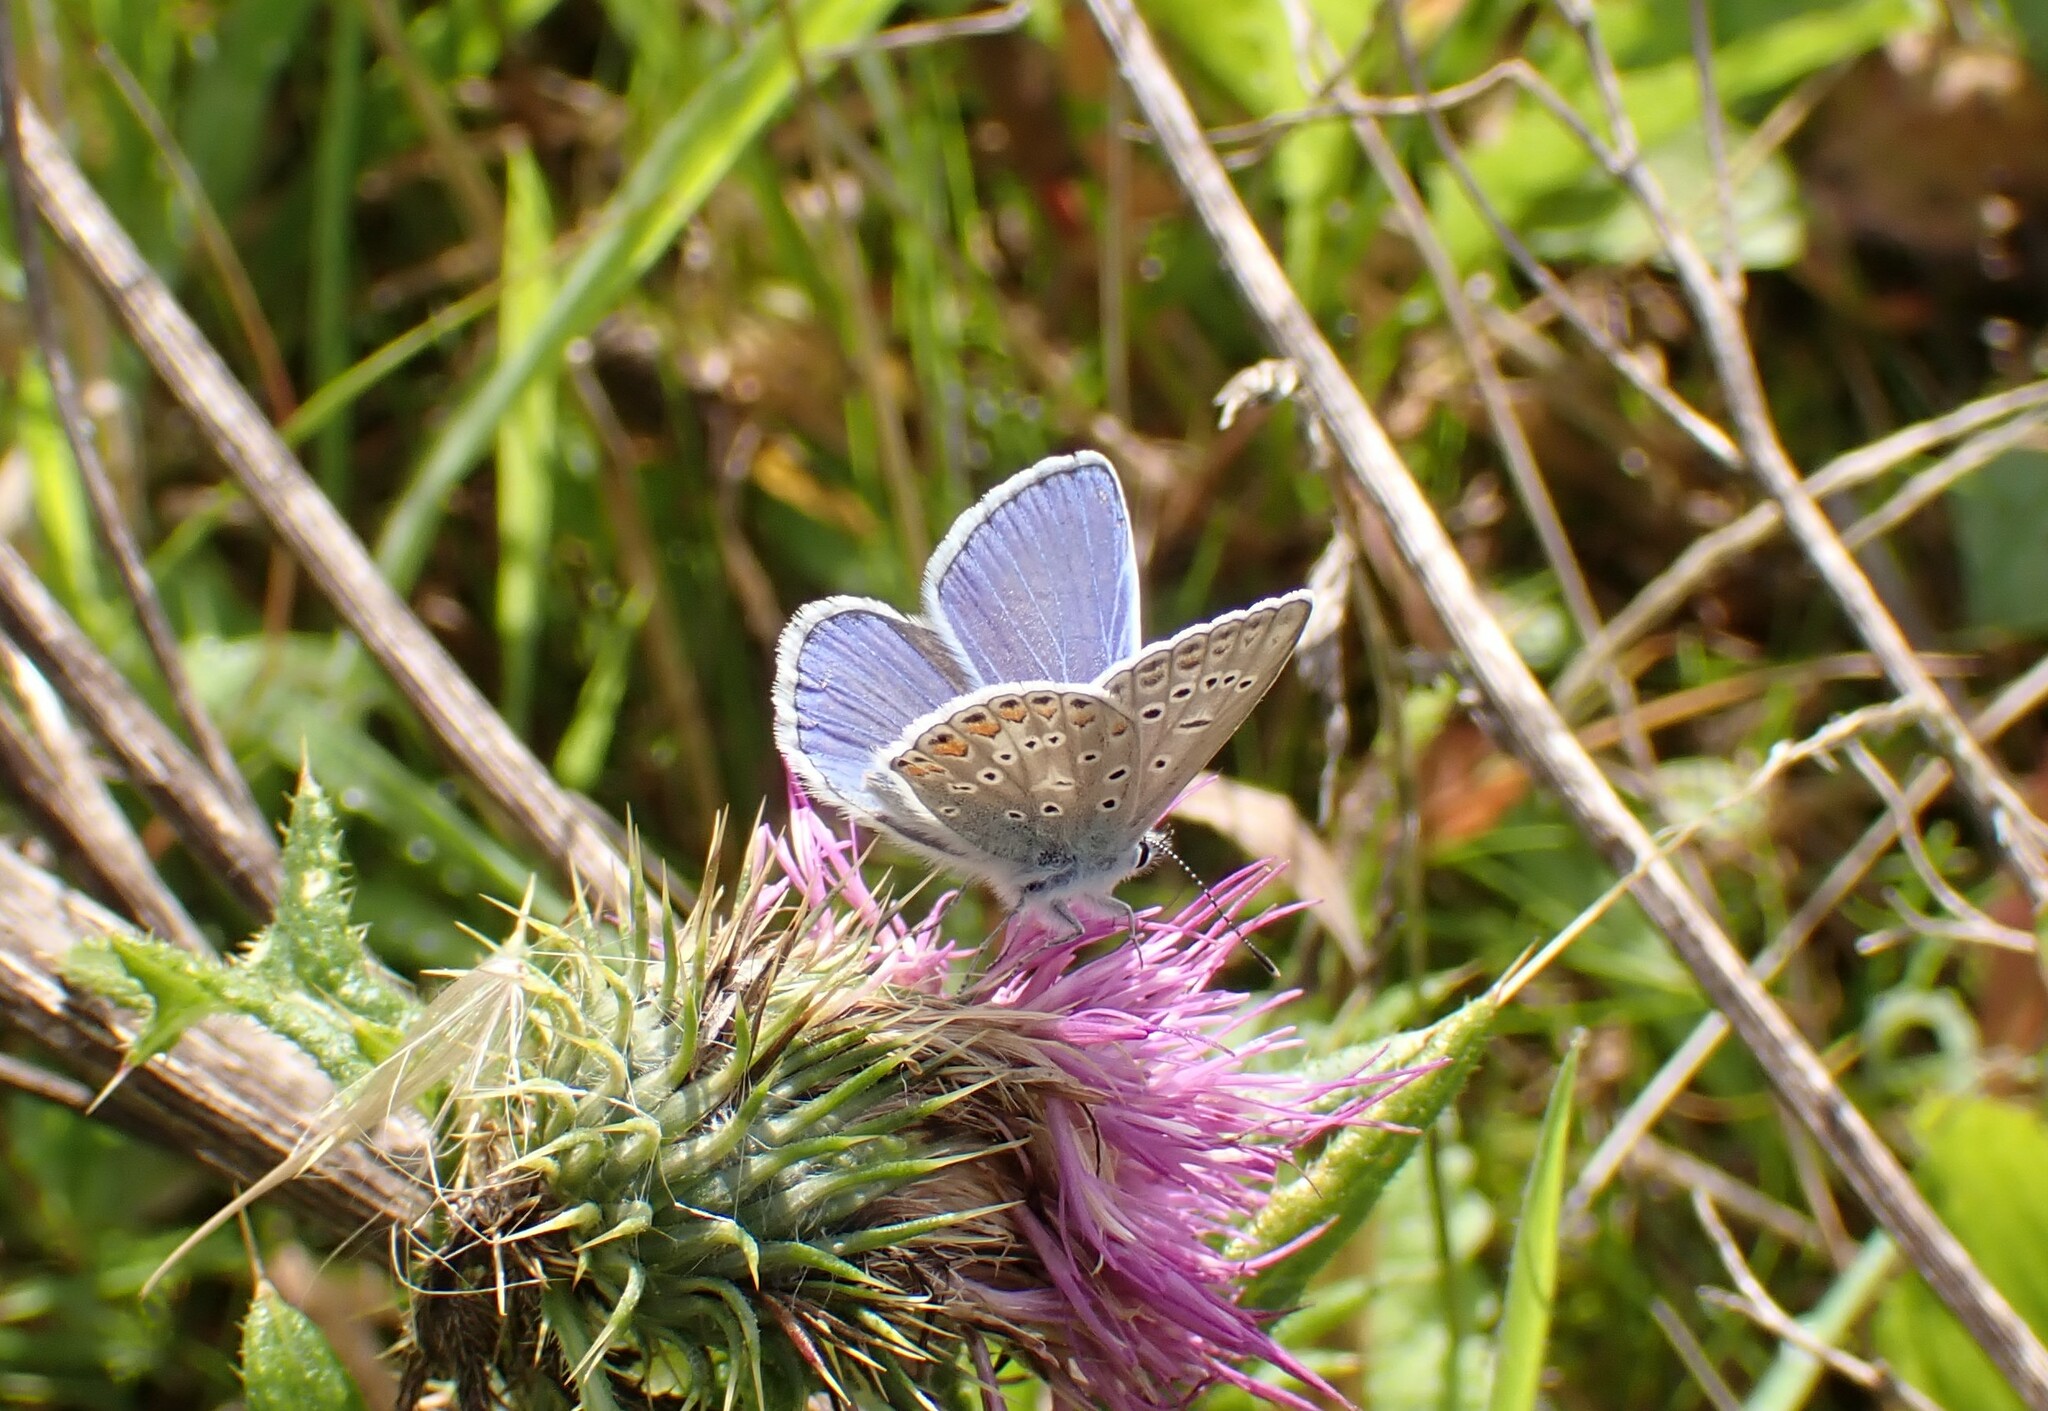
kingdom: Animalia
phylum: Arthropoda
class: Insecta
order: Lepidoptera
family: Lycaenidae
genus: Polyommatus
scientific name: Polyommatus icarus
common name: Common blue
